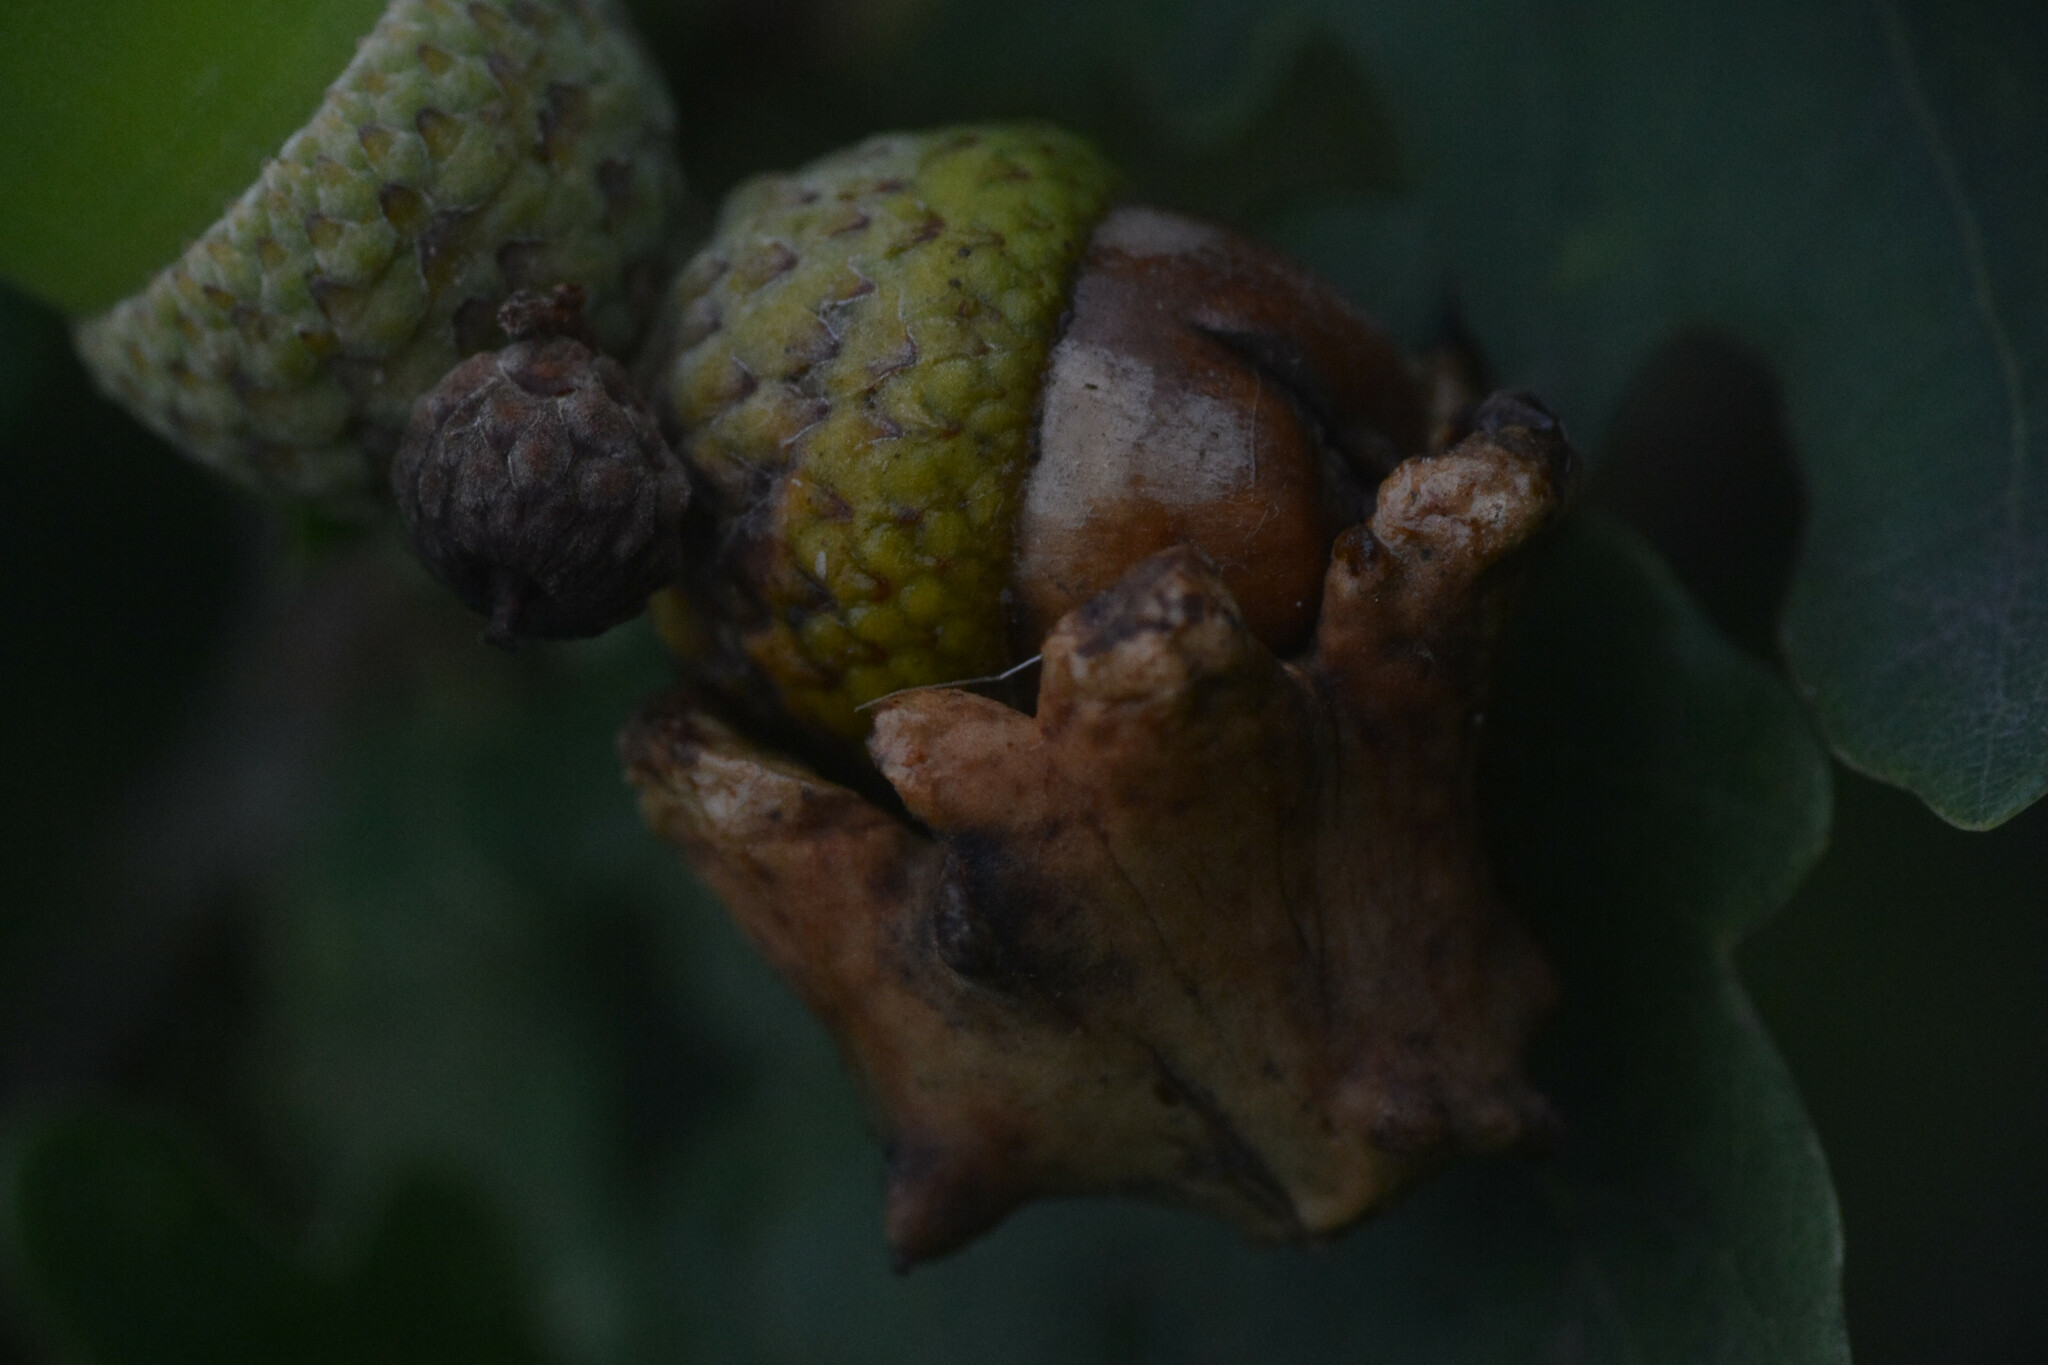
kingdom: Animalia
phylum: Arthropoda
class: Insecta
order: Hymenoptera
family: Cynipidae
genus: Andricus
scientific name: Andricus quercuscalicis
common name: Knopper gall
